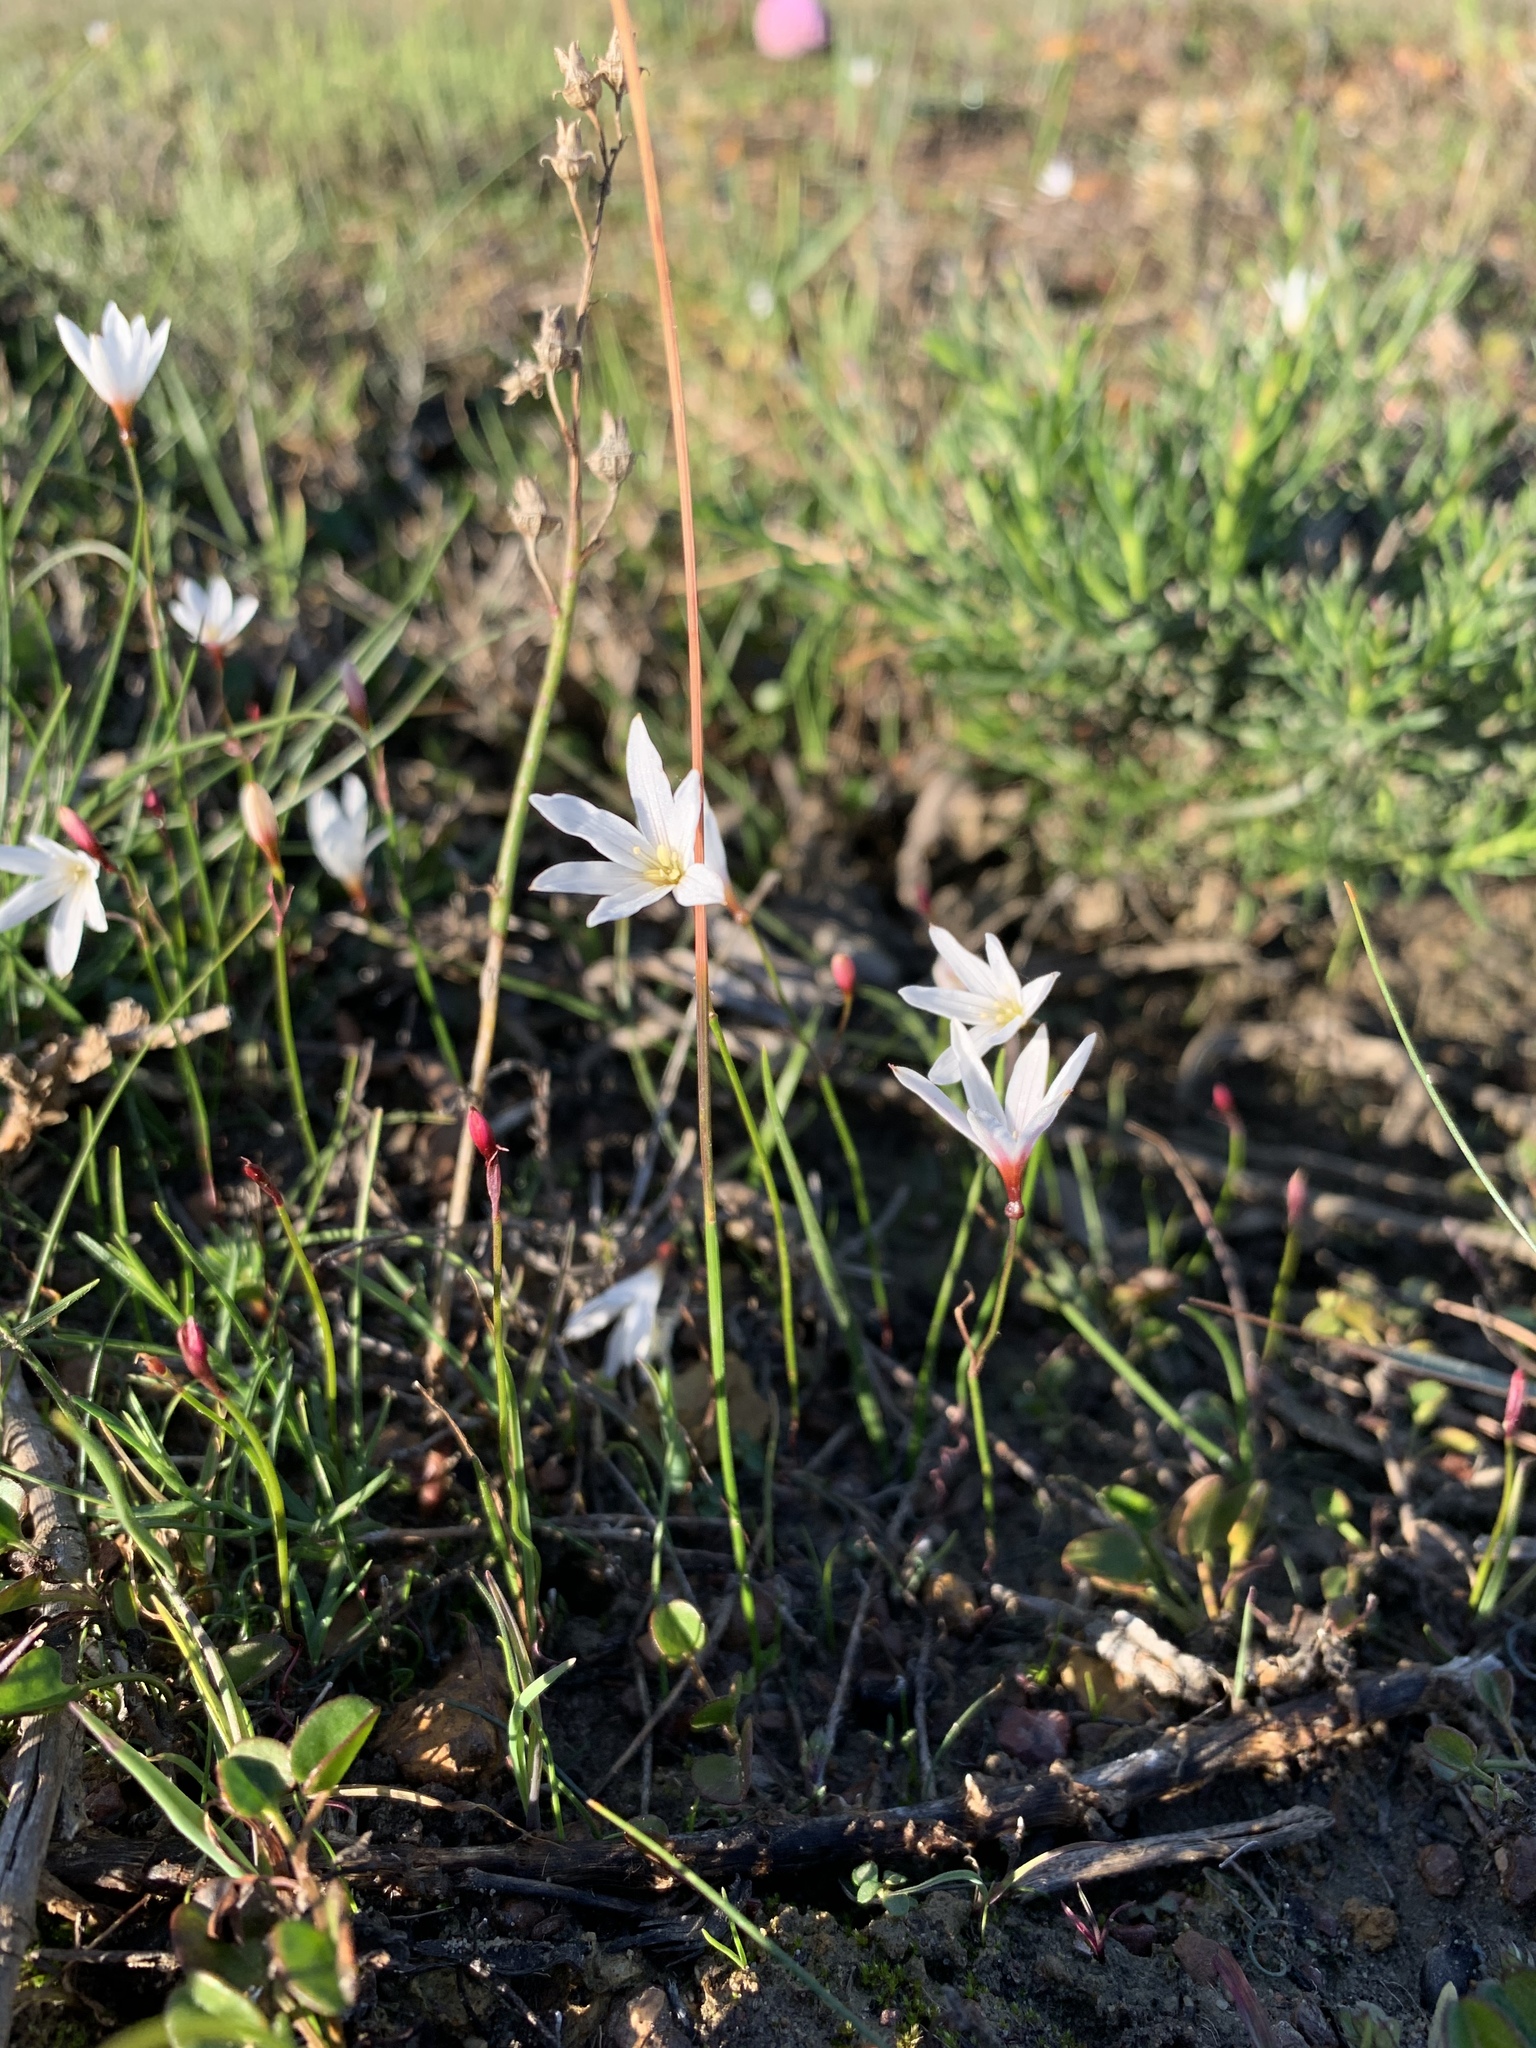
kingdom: Plantae
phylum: Tracheophyta
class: Liliopsida
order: Asparagales
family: Amaryllidaceae
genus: Strumaria
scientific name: Strumaria spiralis
